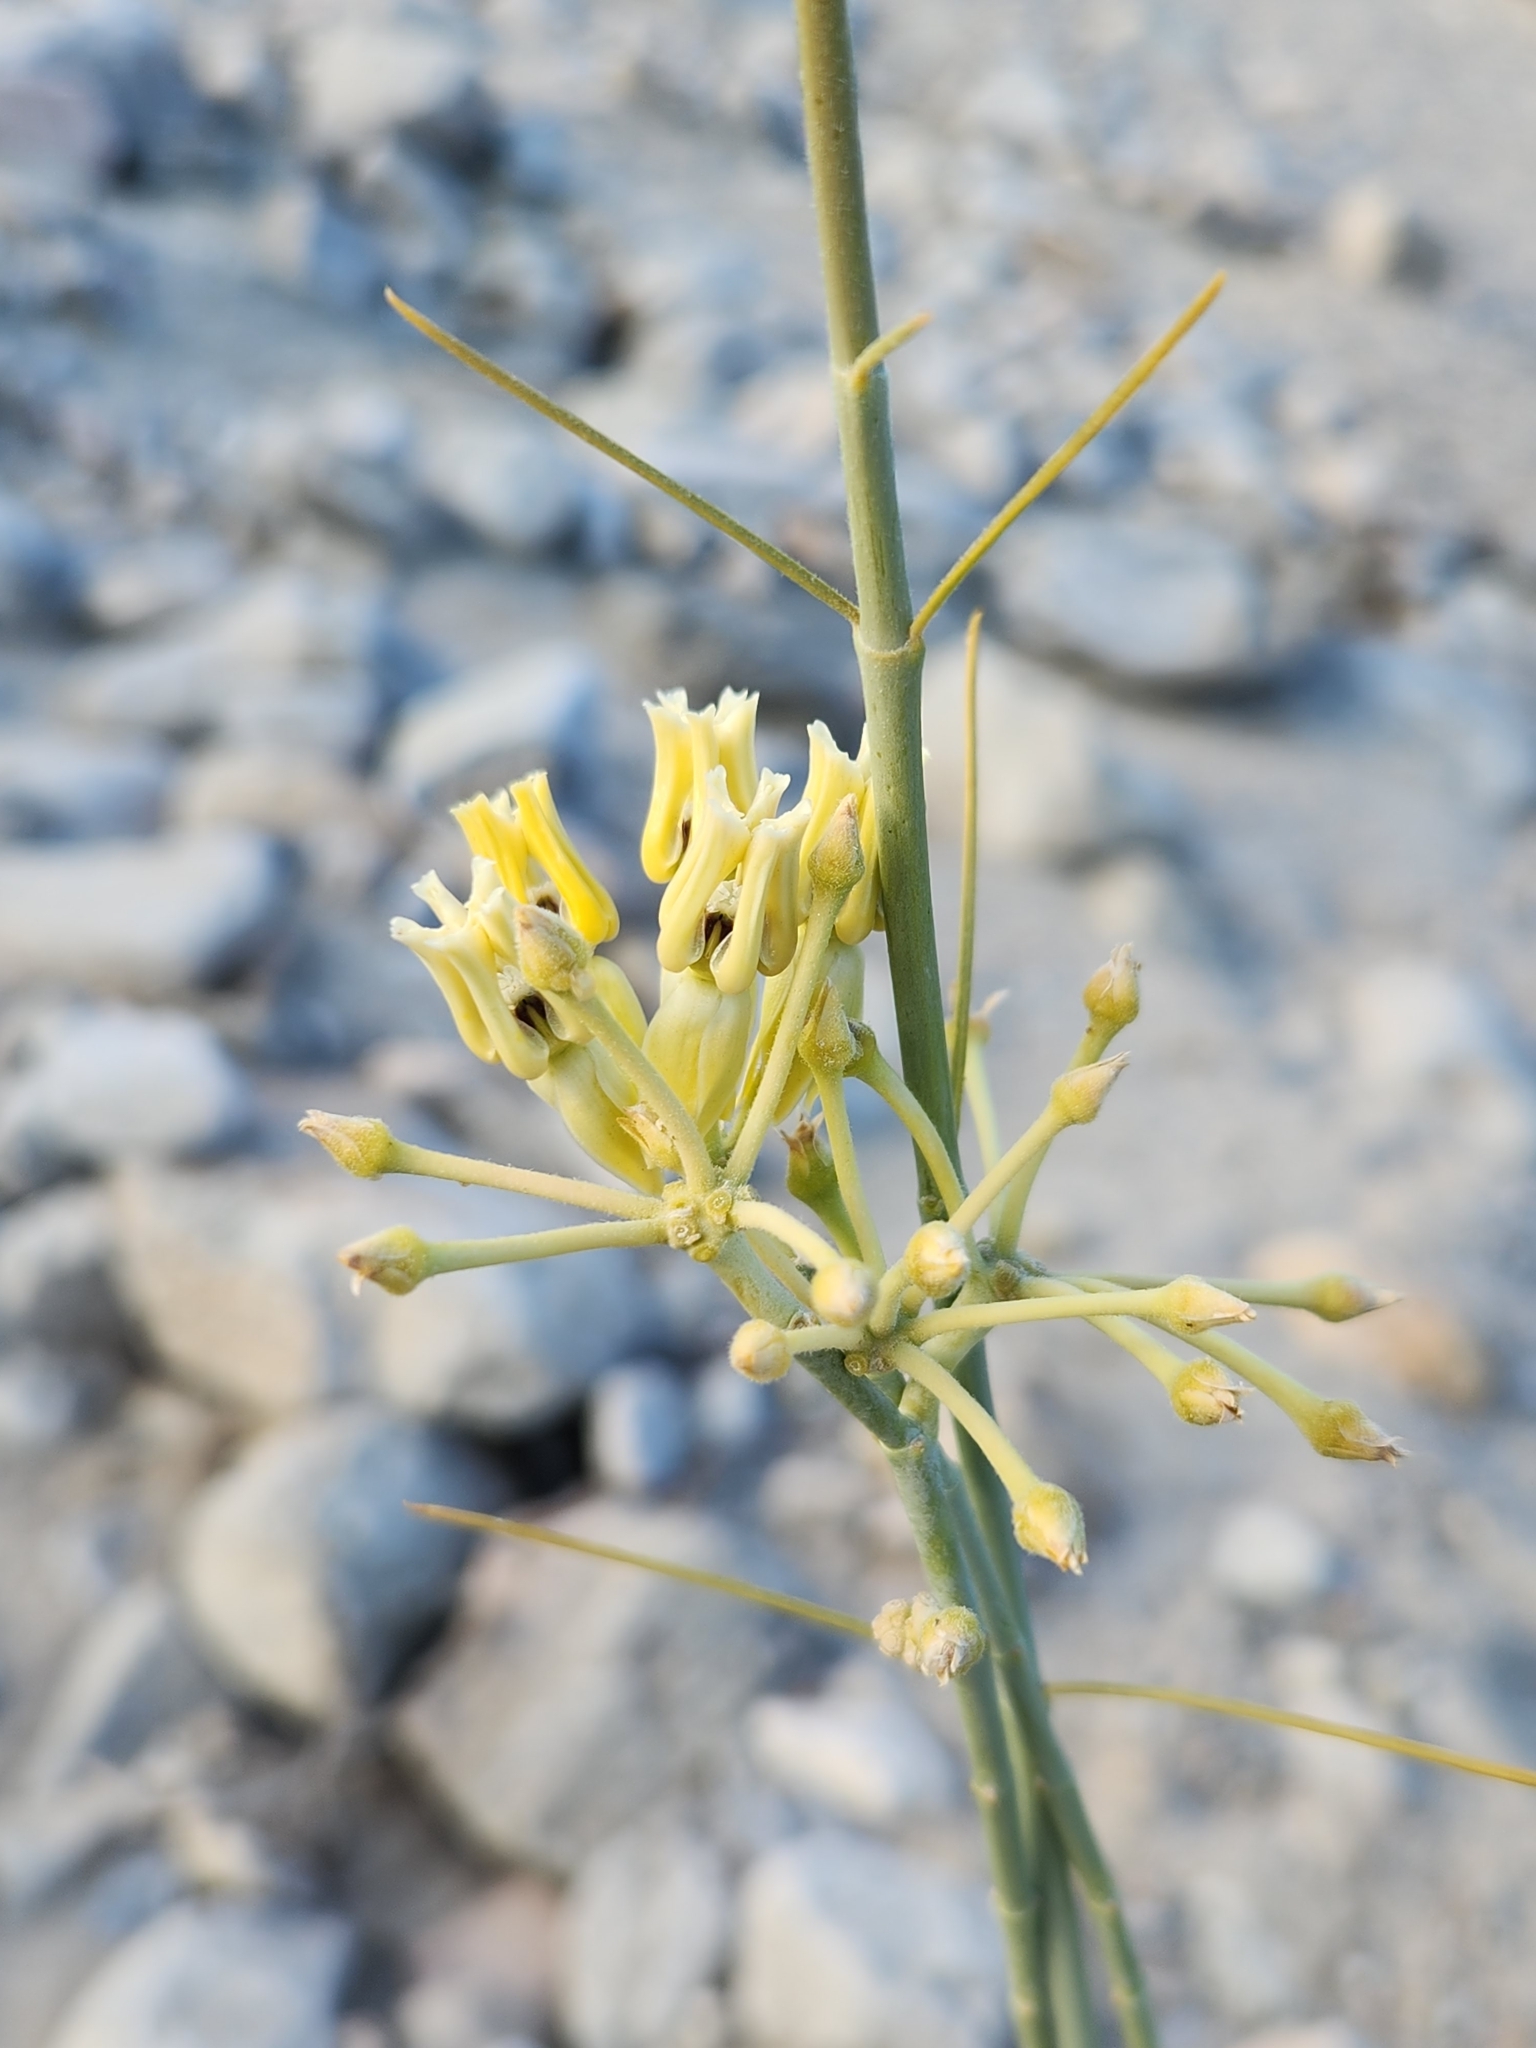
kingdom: Plantae
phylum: Tracheophyta
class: Magnoliopsida
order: Gentianales
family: Apocynaceae
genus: Asclepias
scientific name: Asclepias subulata
